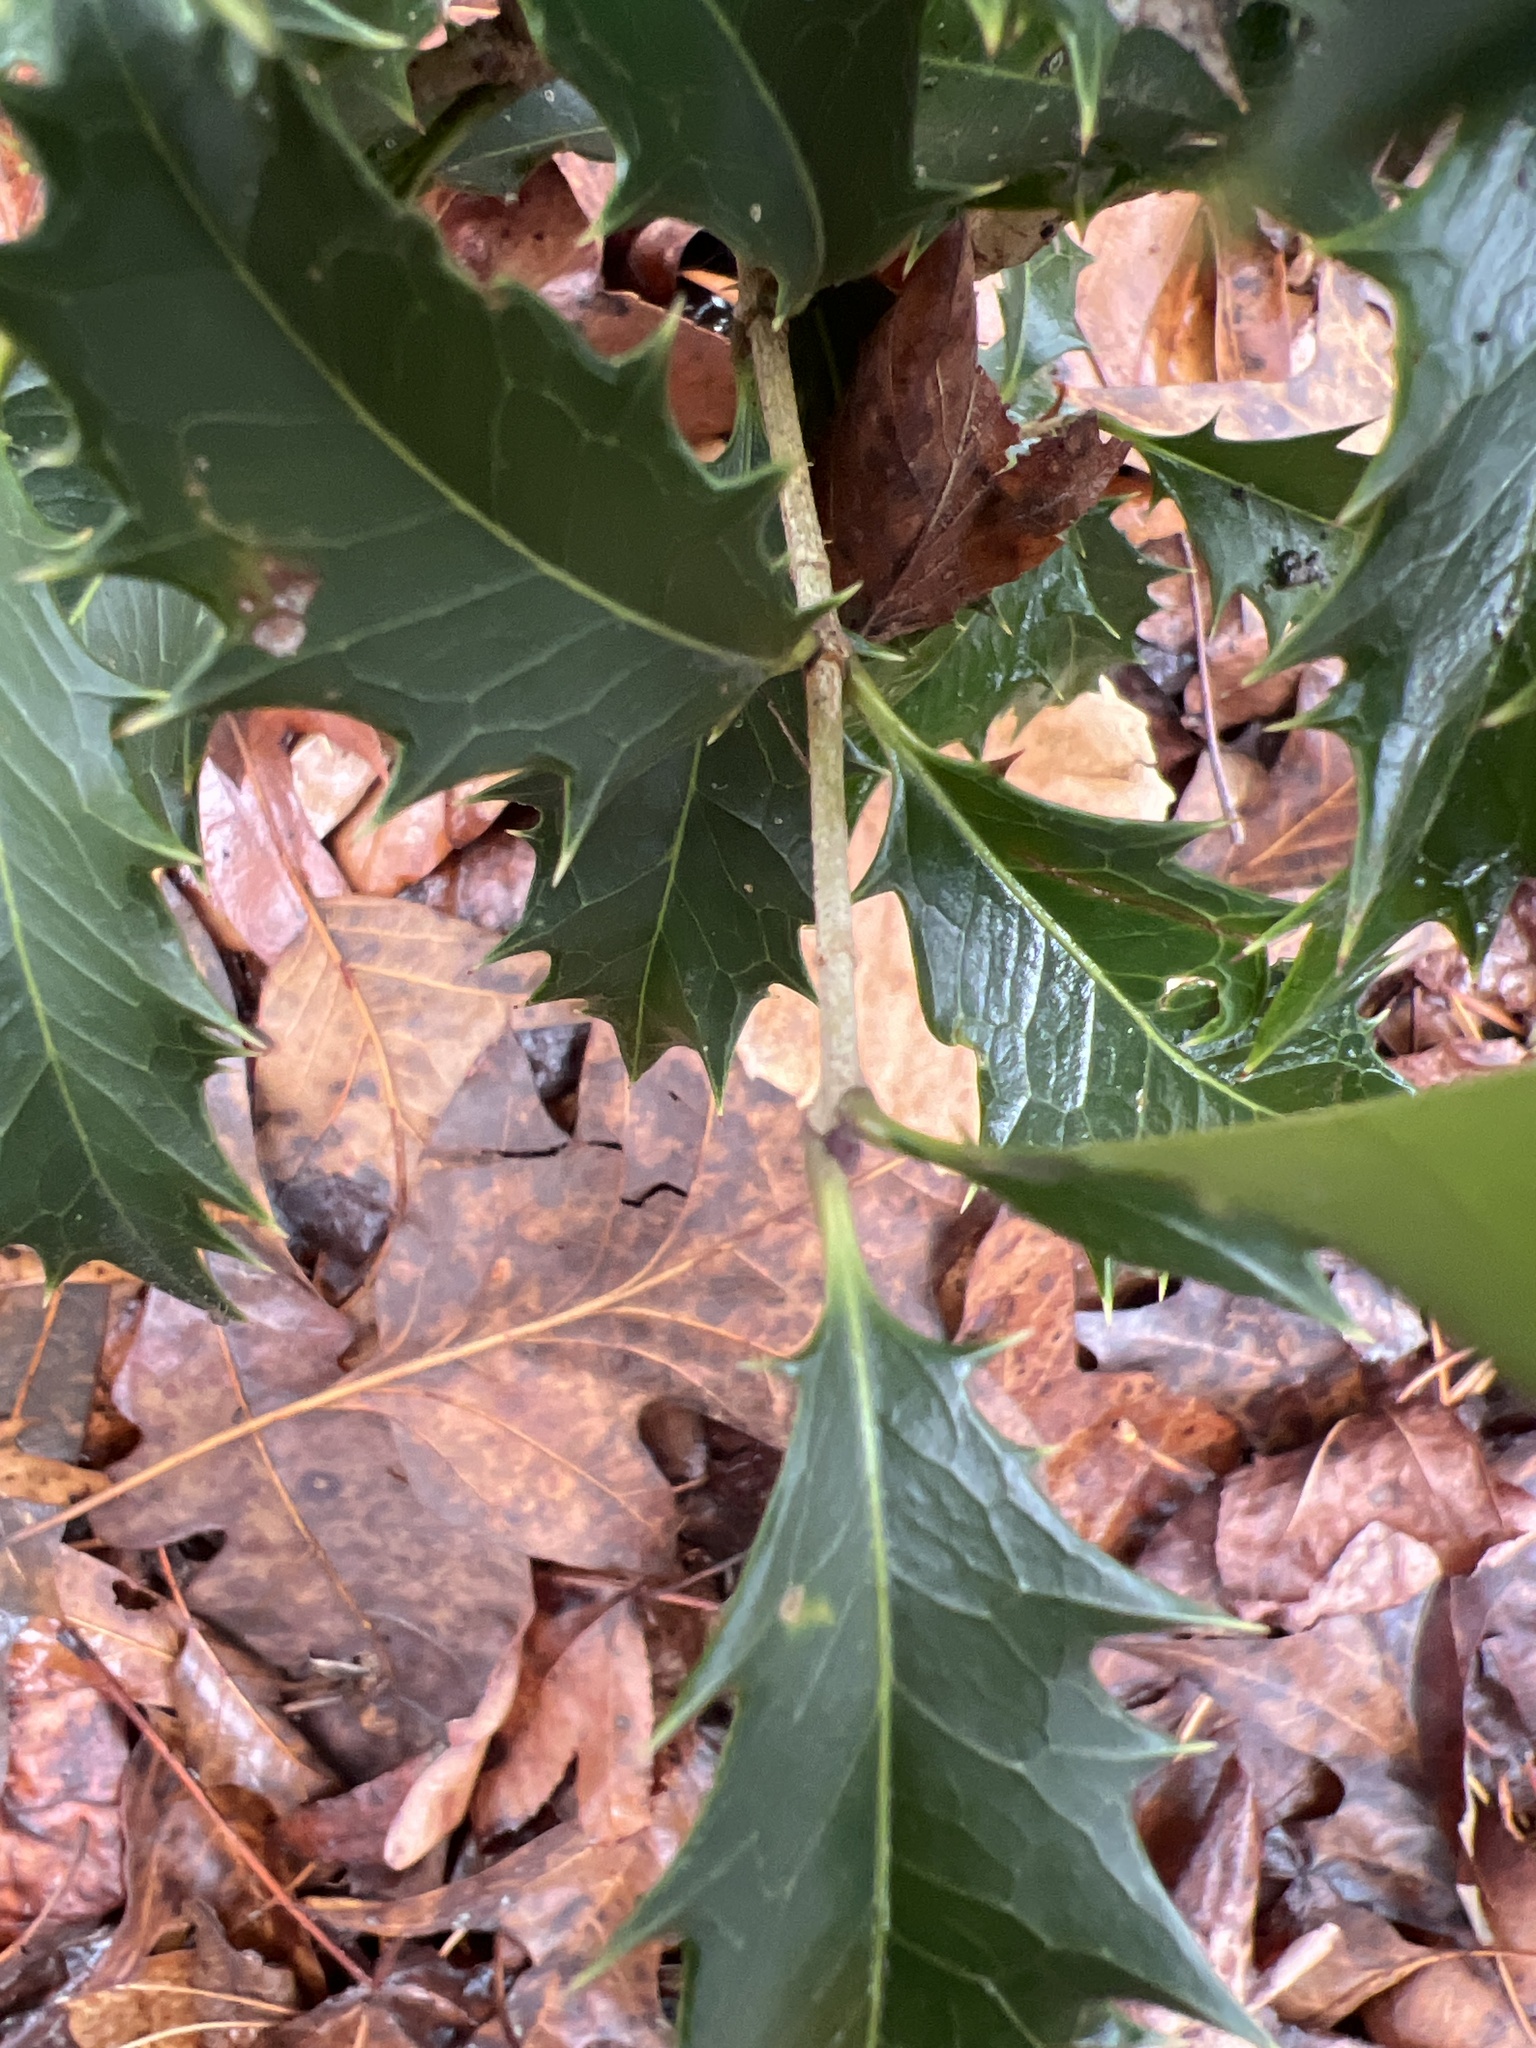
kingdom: Plantae
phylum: Tracheophyta
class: Magnoliopsida
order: Lamiales
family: Oleaceae
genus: Osmanthus
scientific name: Osmanthus heterophyllus
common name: Holly osmanthus
